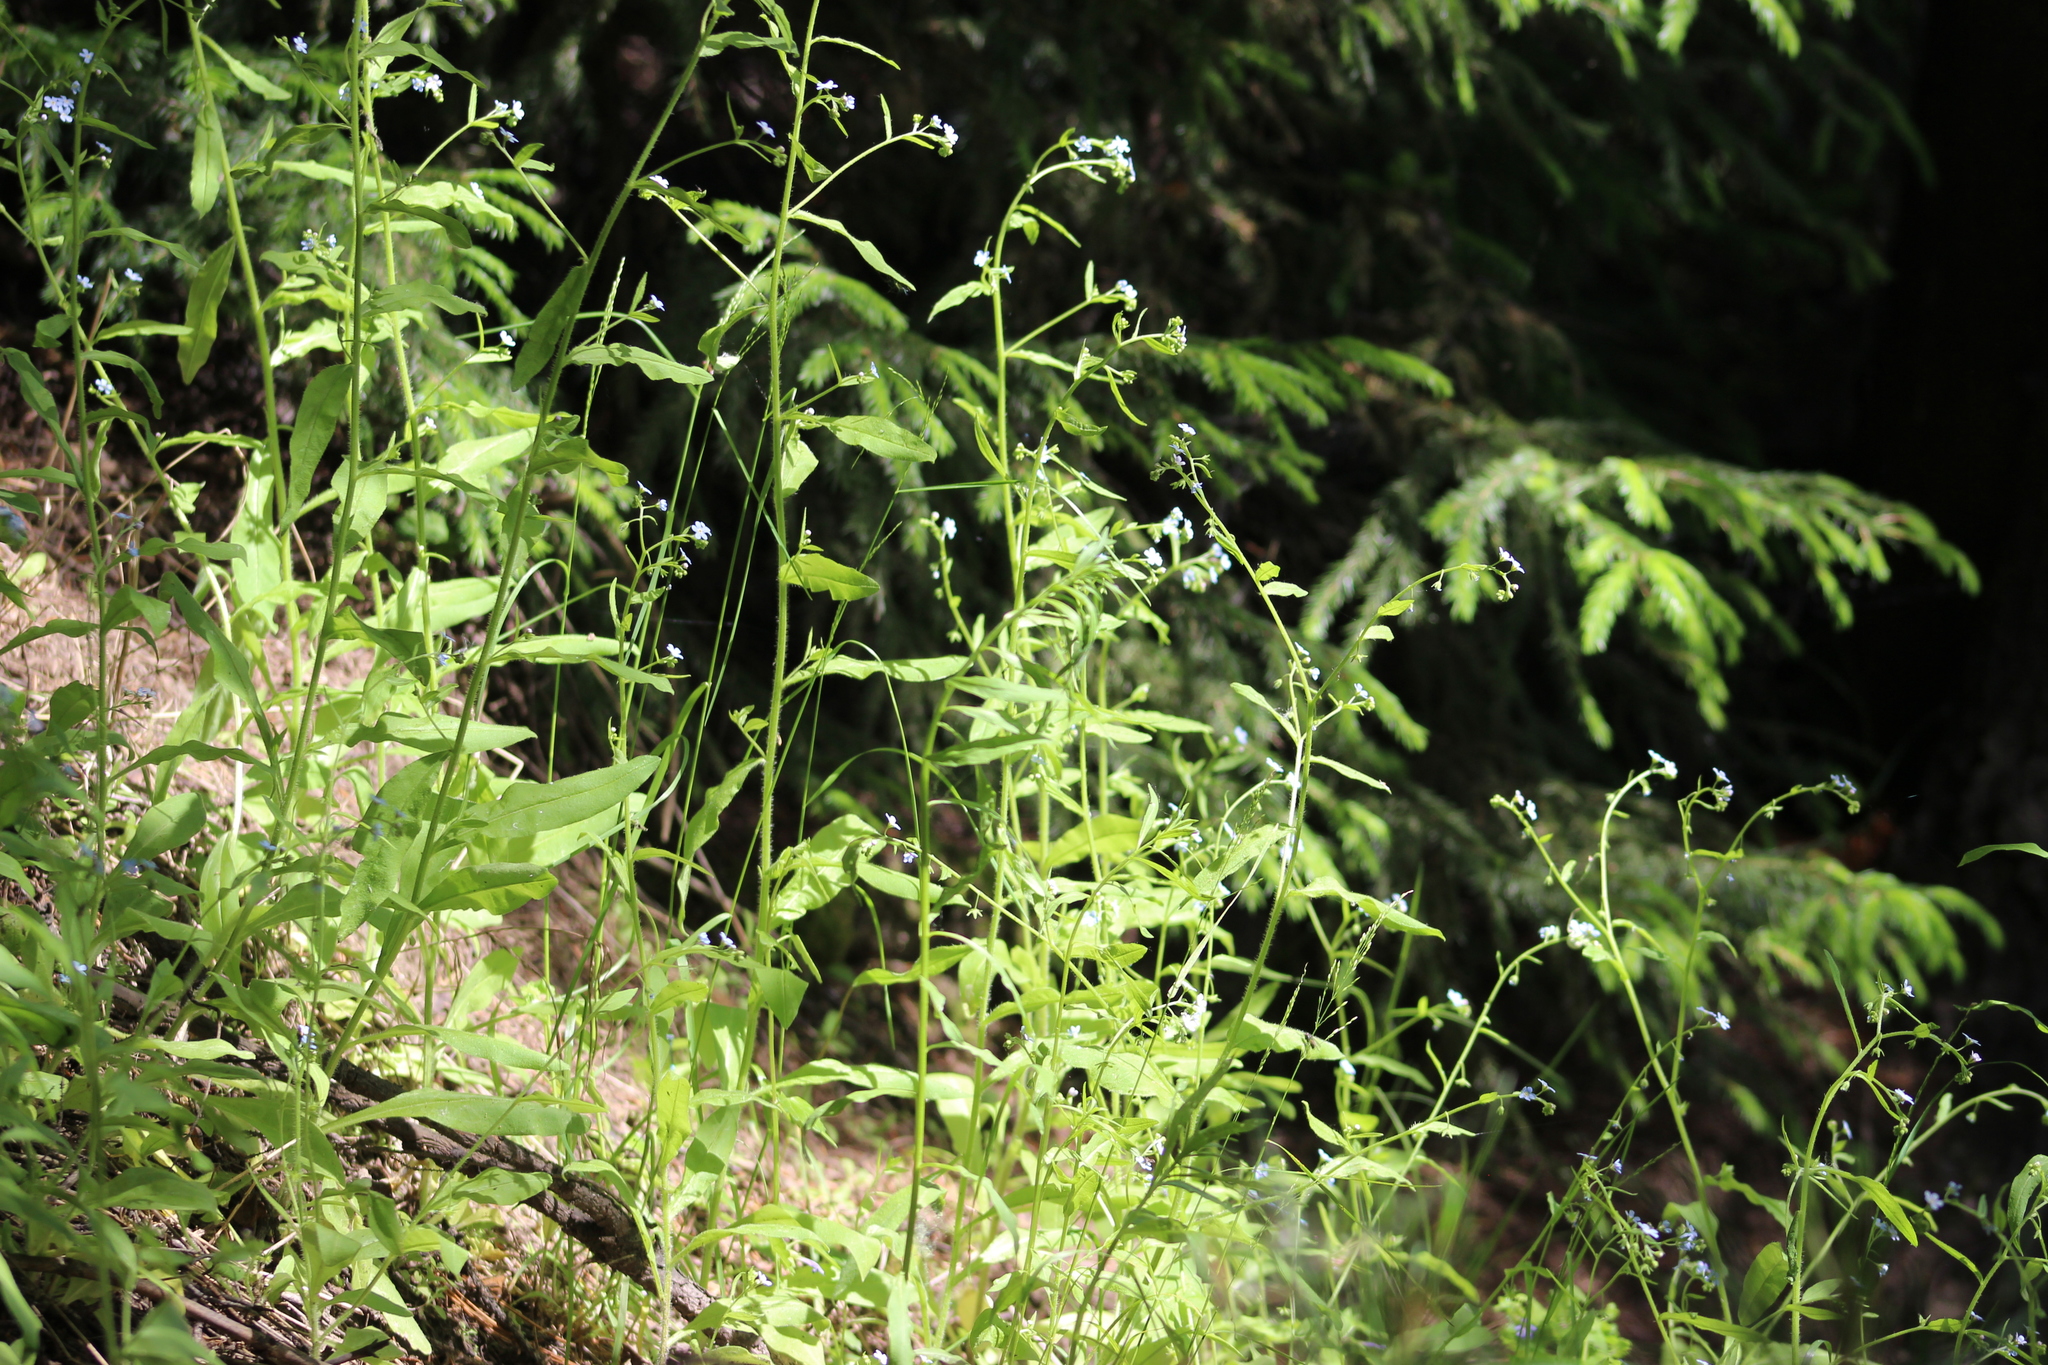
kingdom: Plantae
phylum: Tracheophyta
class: Magnoliopsida
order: Boraginales
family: Boraginaceae
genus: Hackelia
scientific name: Hackelia deflexa
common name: Nodding stickseed
